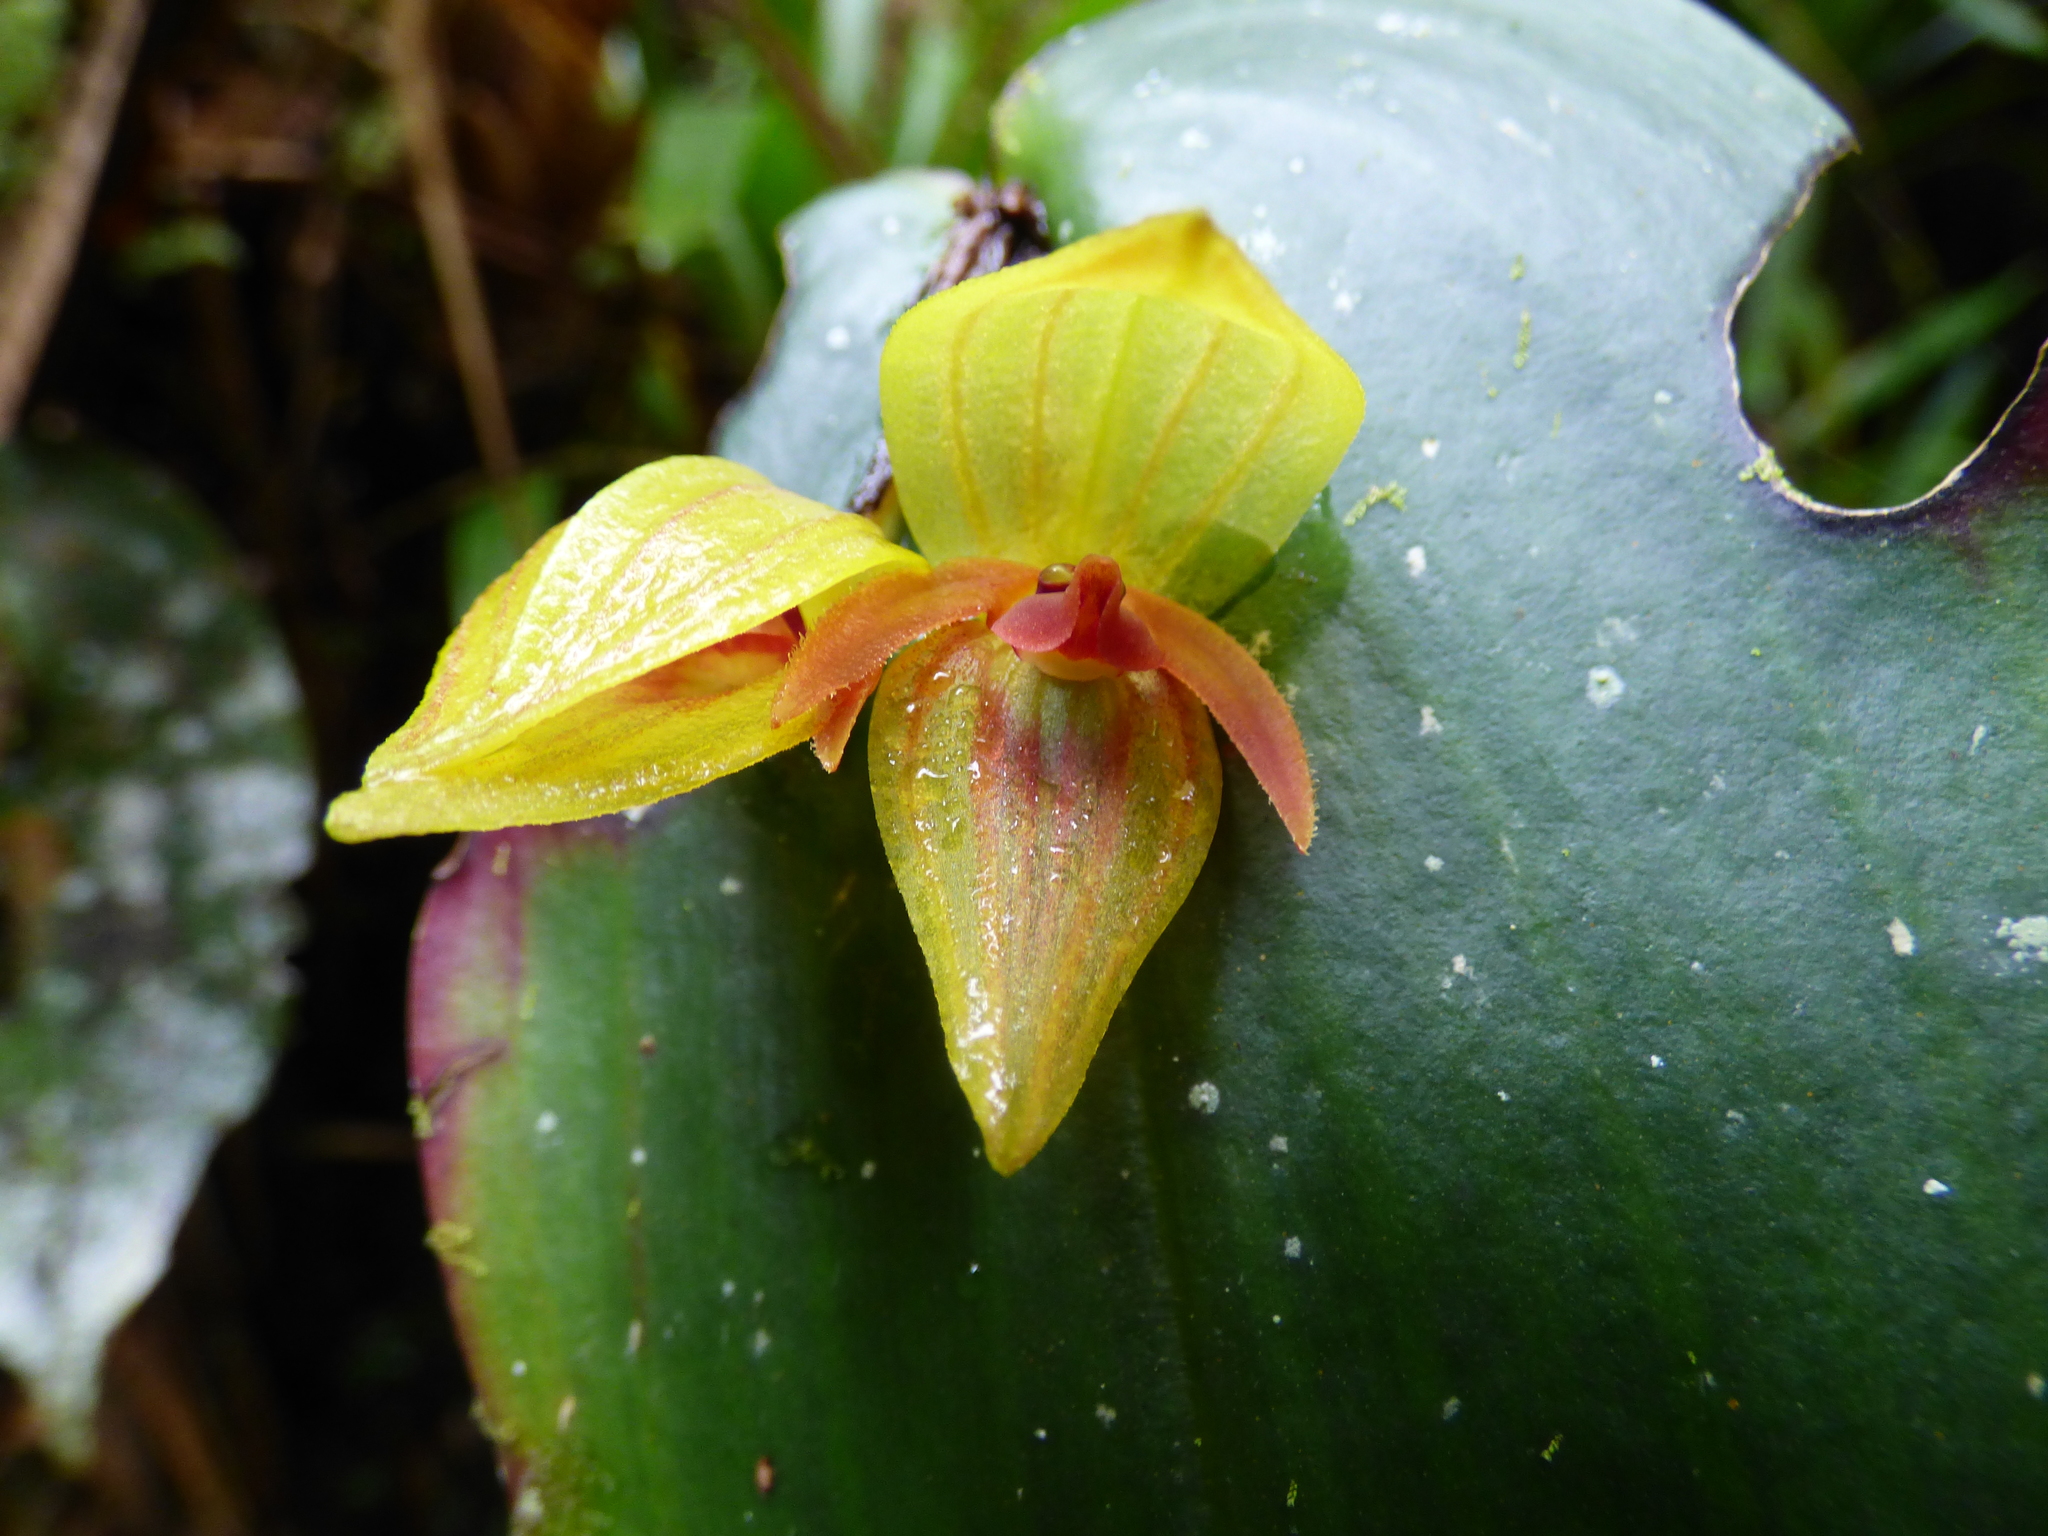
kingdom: Plantae
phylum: Tracheophyta
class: Liliopsida
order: Asparagales
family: Orchidaceae
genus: Pleurothallis
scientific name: Pleurothallis siphoglossa
